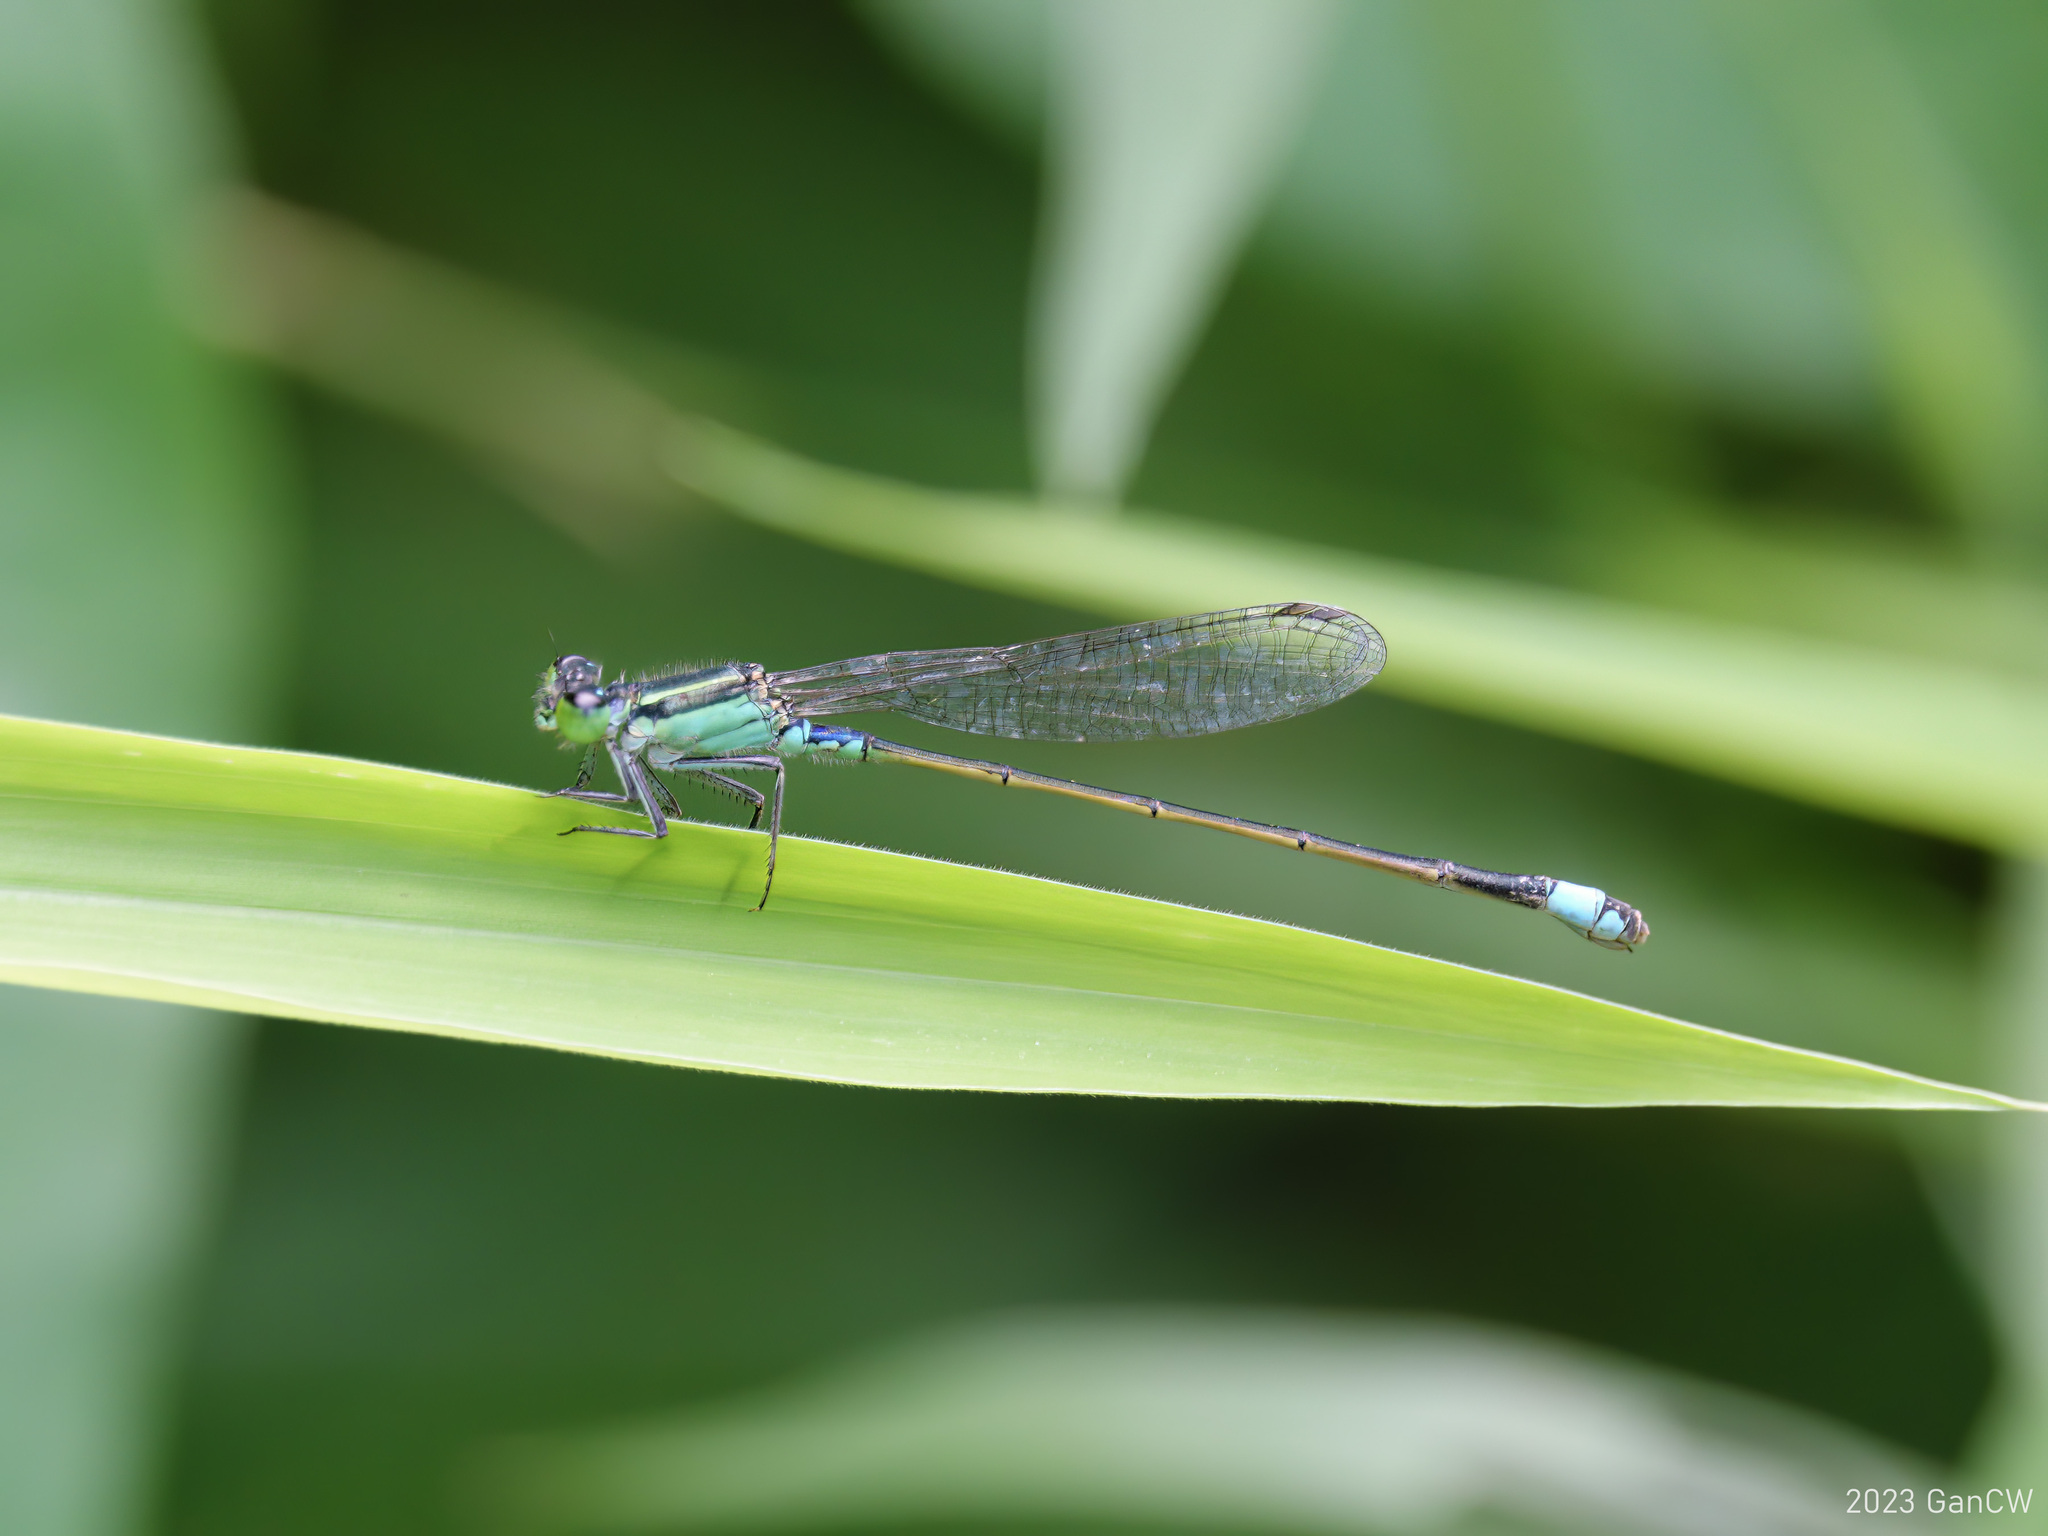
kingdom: Animalia
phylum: Arthropoda
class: Insecta
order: Odonata
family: Coenagrionidae
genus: Ischnura
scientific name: Ischnura senegalensis
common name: Tropical bluetail
